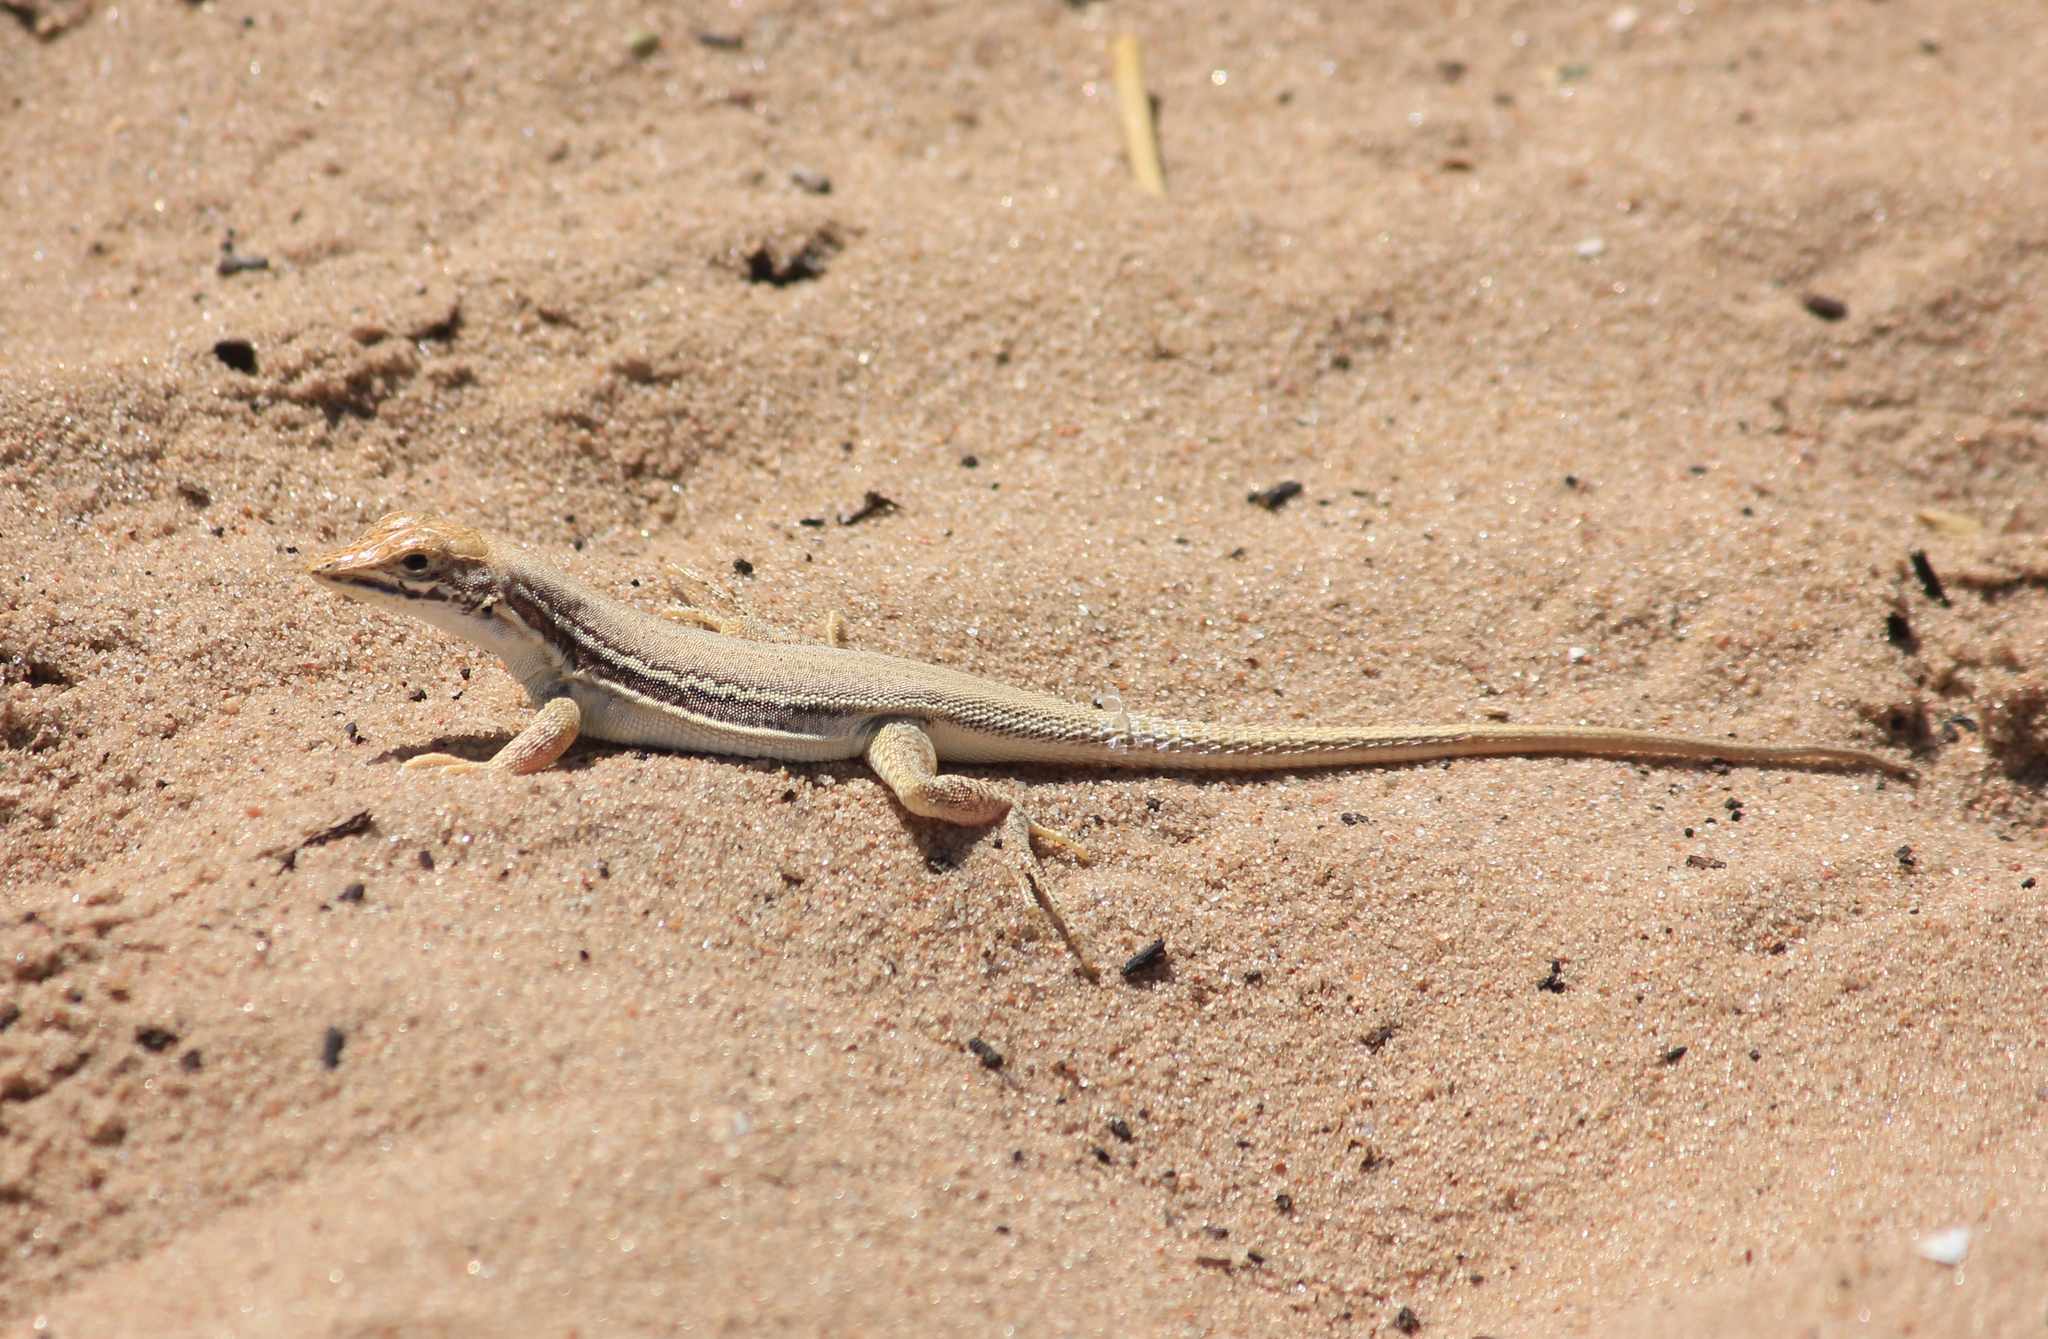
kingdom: Animalia
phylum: Chordata
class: Squamata
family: Lacertidae
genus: Meroles
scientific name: Meroles ctenodactylus
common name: Giant desert lizard
